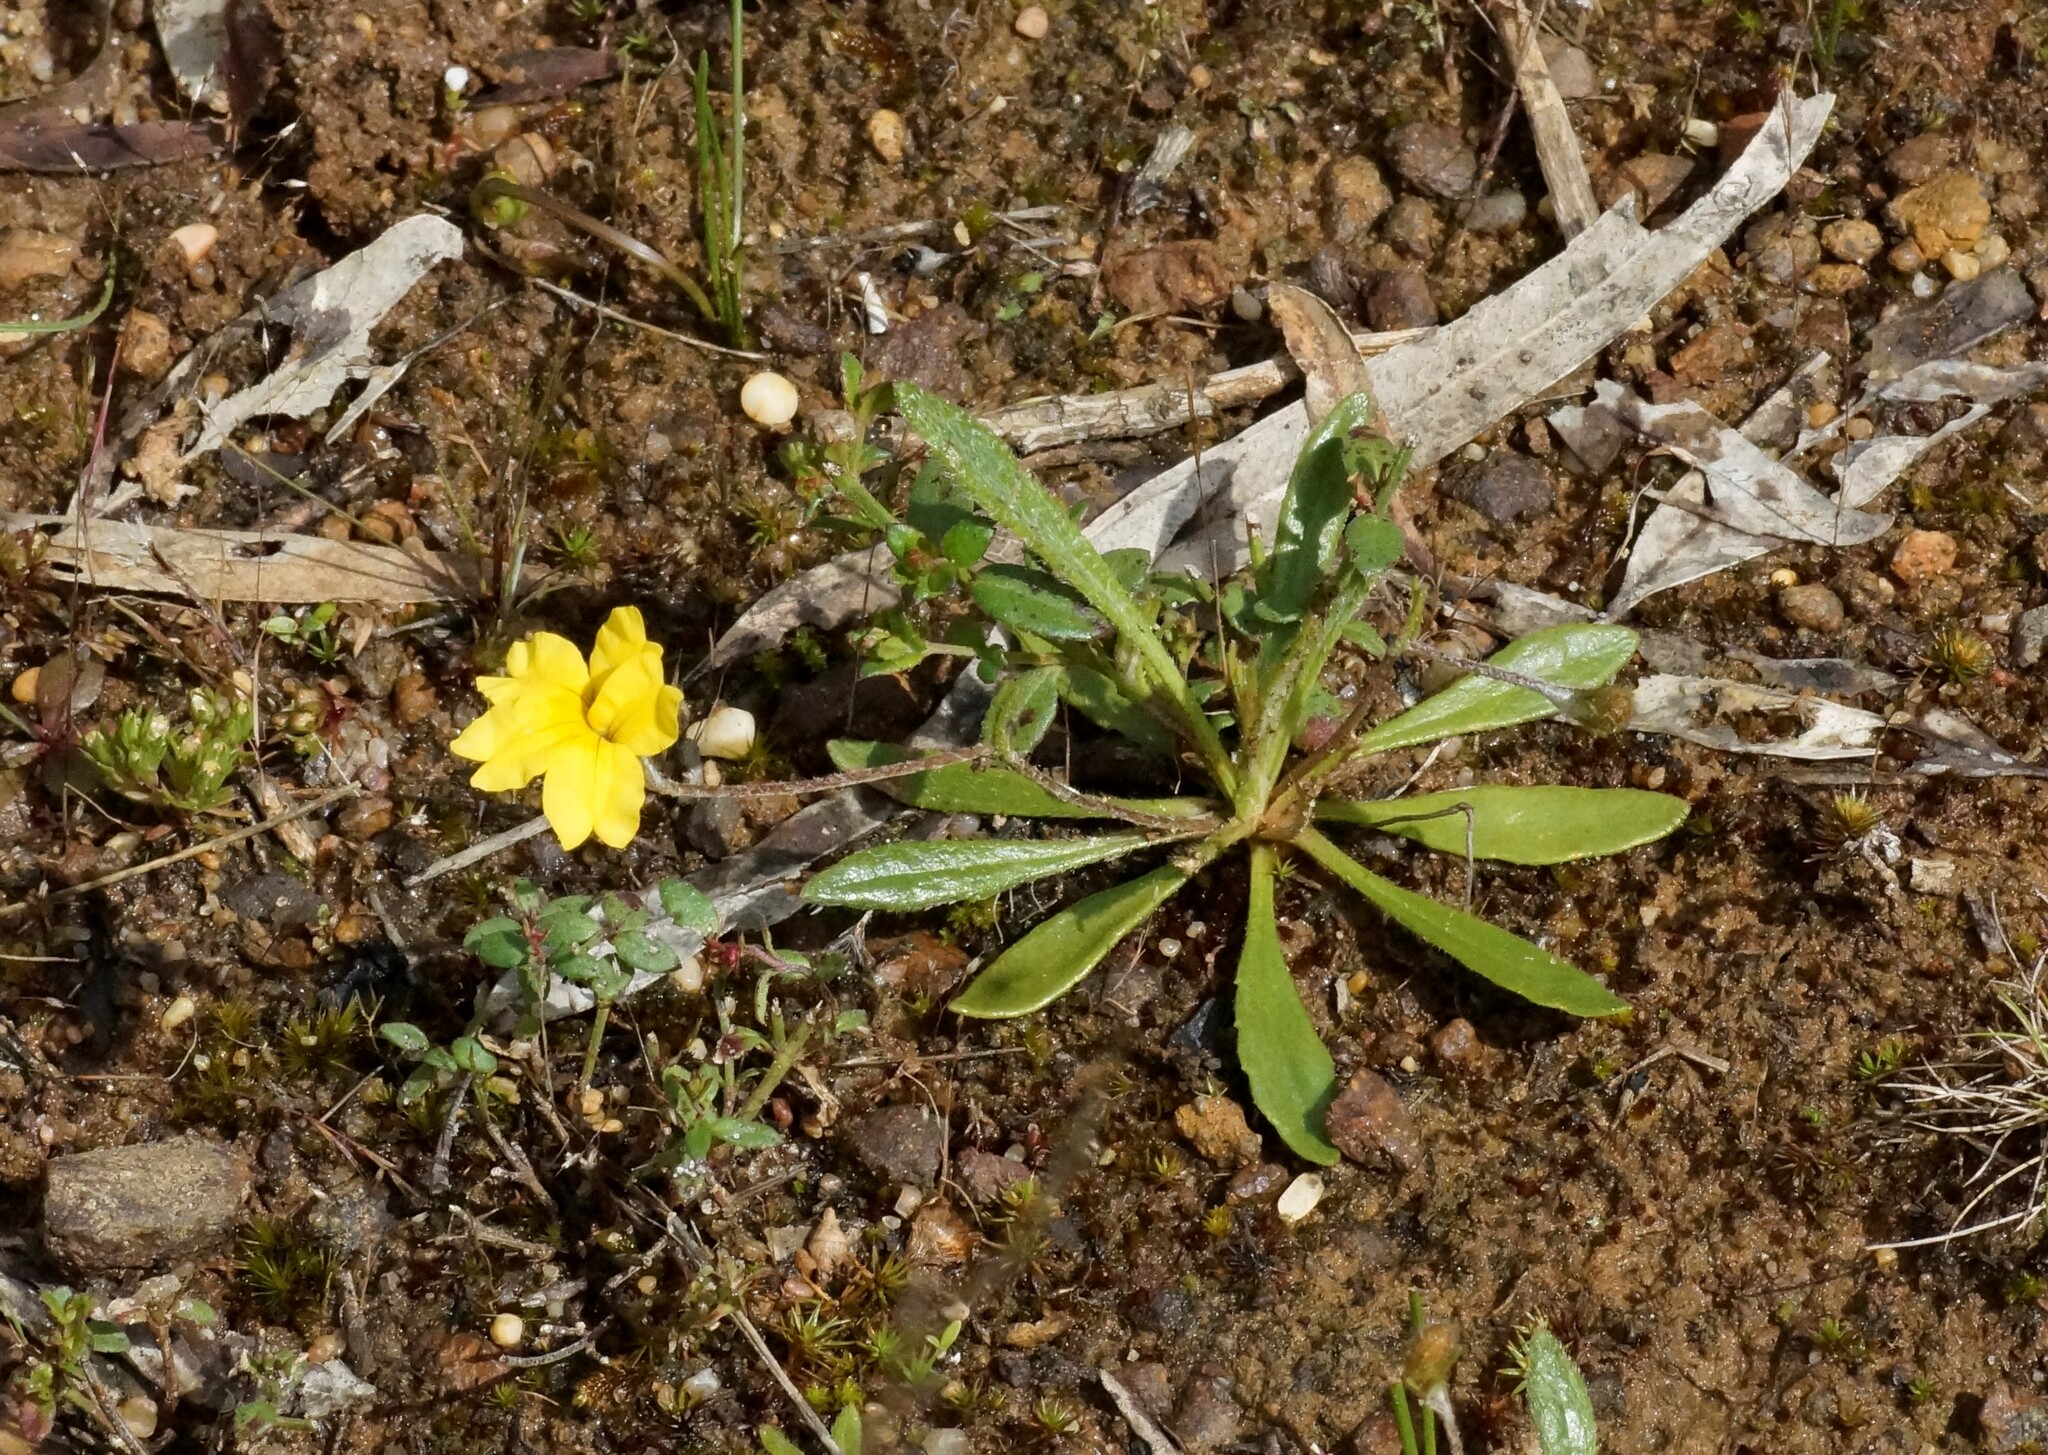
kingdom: Plantae
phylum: Tracheophyta
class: Magnoliopsida
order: Asterales
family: Goodeniaceae
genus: Goodenia
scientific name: Goodenia geniculata
